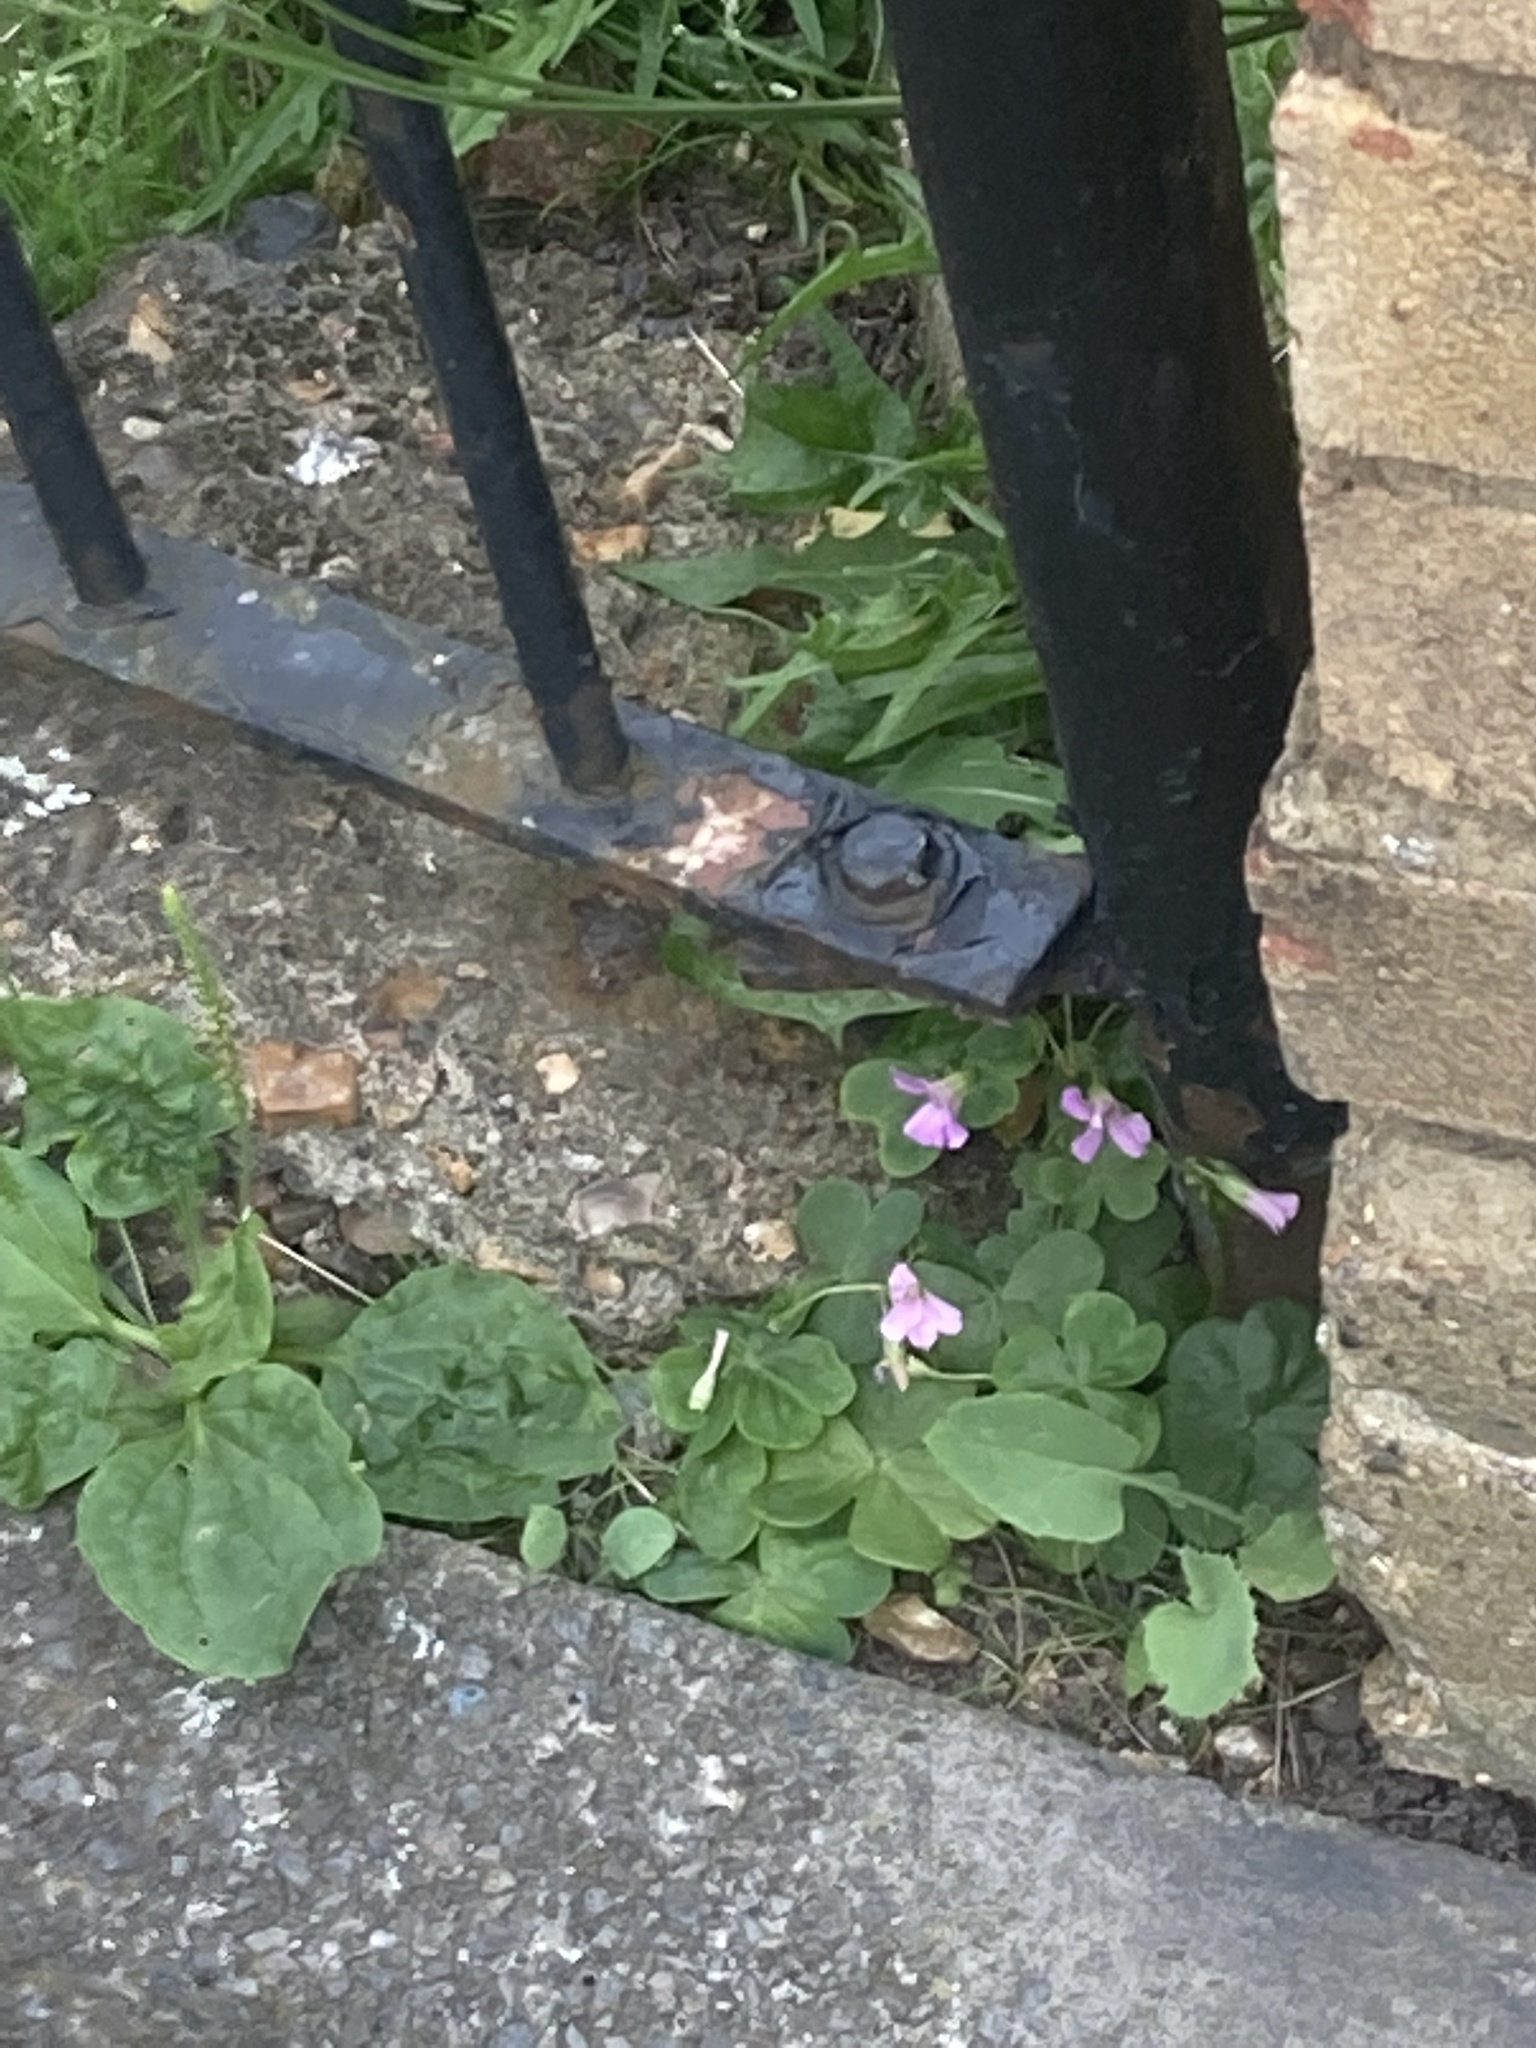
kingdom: Plantae
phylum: Tracheophyta
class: Magnoliopsida
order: Oxalidales
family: Oxalidaceae
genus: Oxalis
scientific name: Oxalis debilis
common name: Large-flowered pink-sorrel
